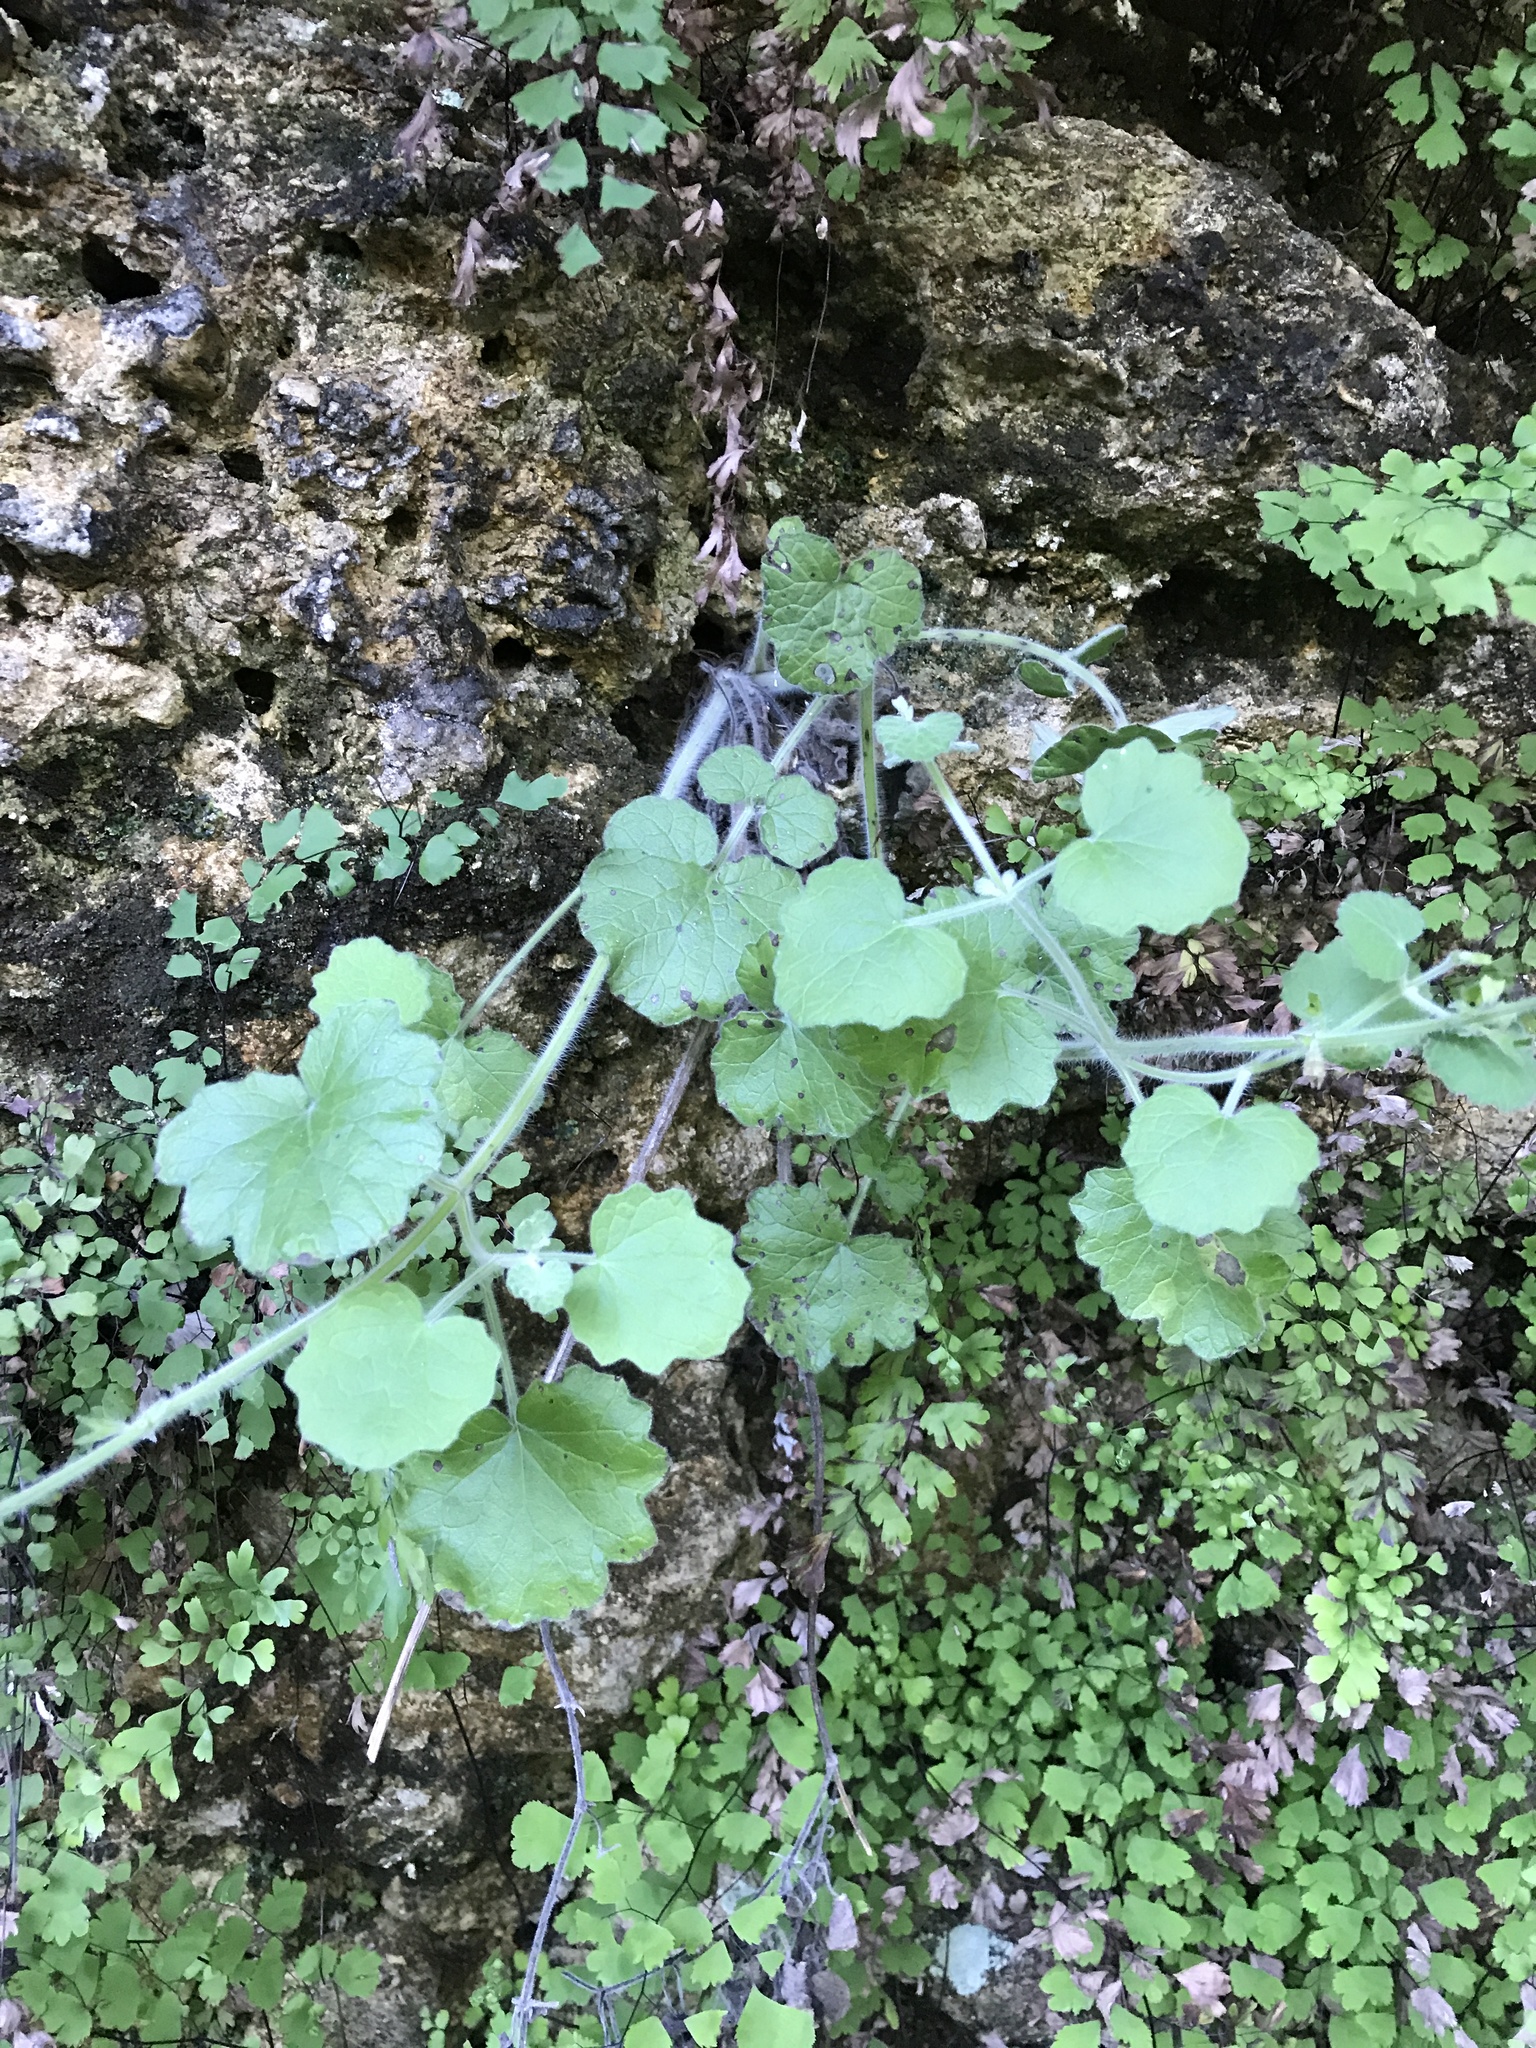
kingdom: Plantae
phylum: Tracheophyta
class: Magnoliopsida
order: Lamiales
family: Lamiaceae
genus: Salvia
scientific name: Salvia roemeriana
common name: Cedar sage
